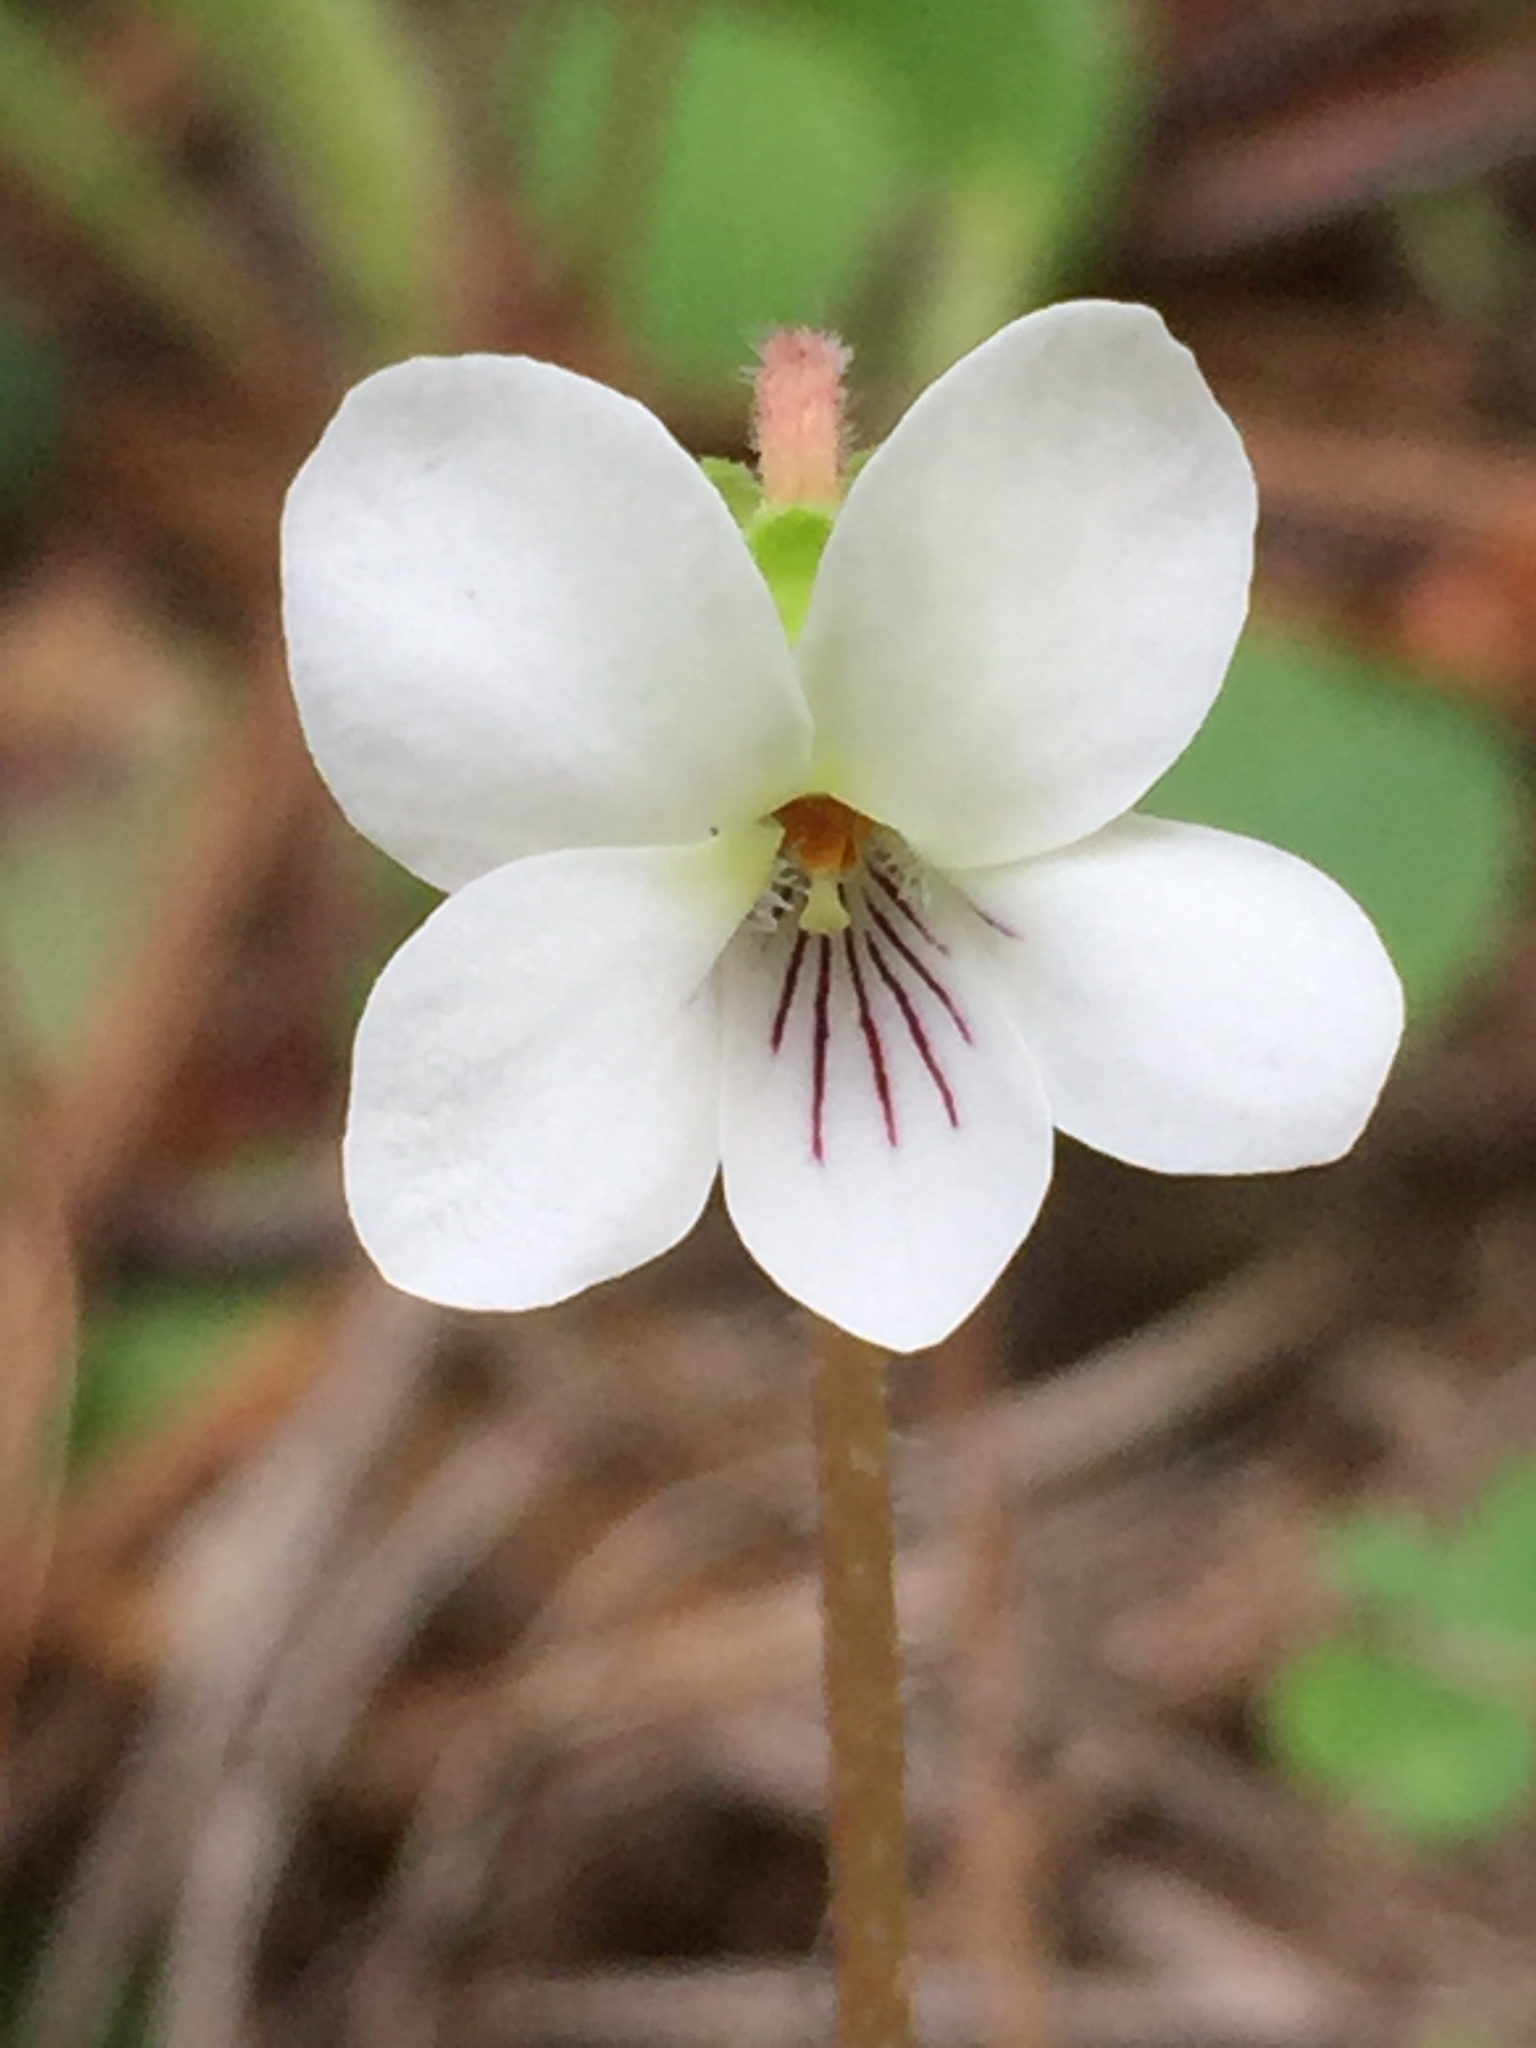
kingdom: Plantae
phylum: Tracheophyta
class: Magnoliopsida
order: Malpighiales
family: Violaceae
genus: Viola
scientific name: Viola primulifolia
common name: Primrose-leaf violet
